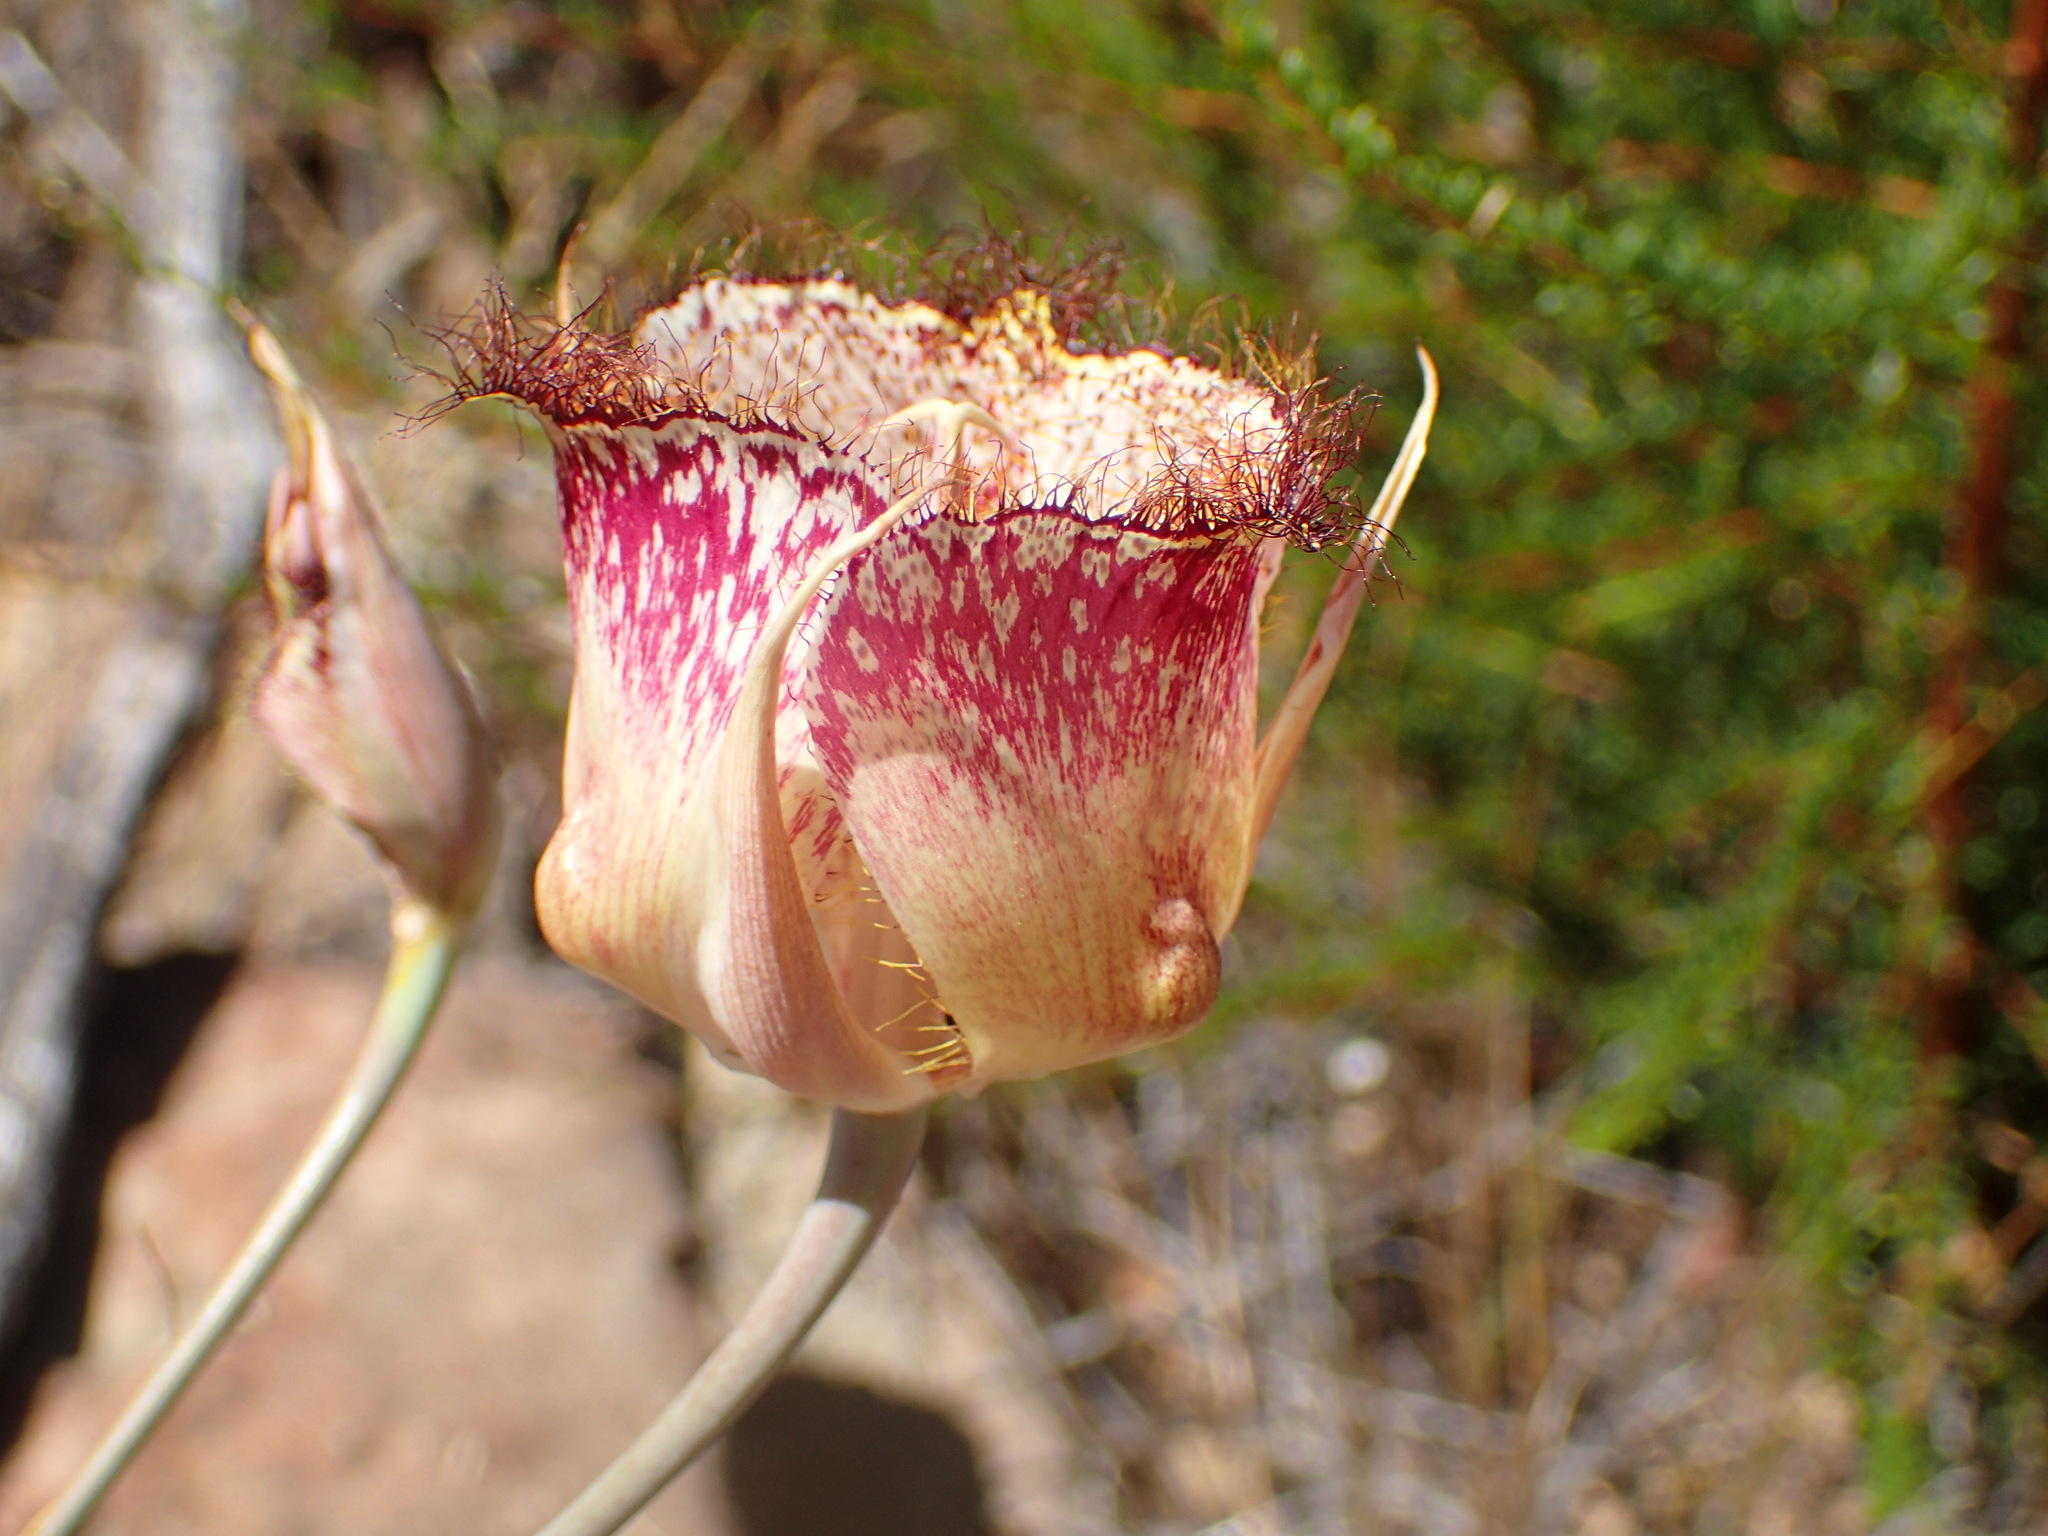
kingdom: Plantae
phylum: Tracheophyta
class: Liliopsida
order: Liliales
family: Liliaceae
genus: Calochortus
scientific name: Calochortus fimbriatus
